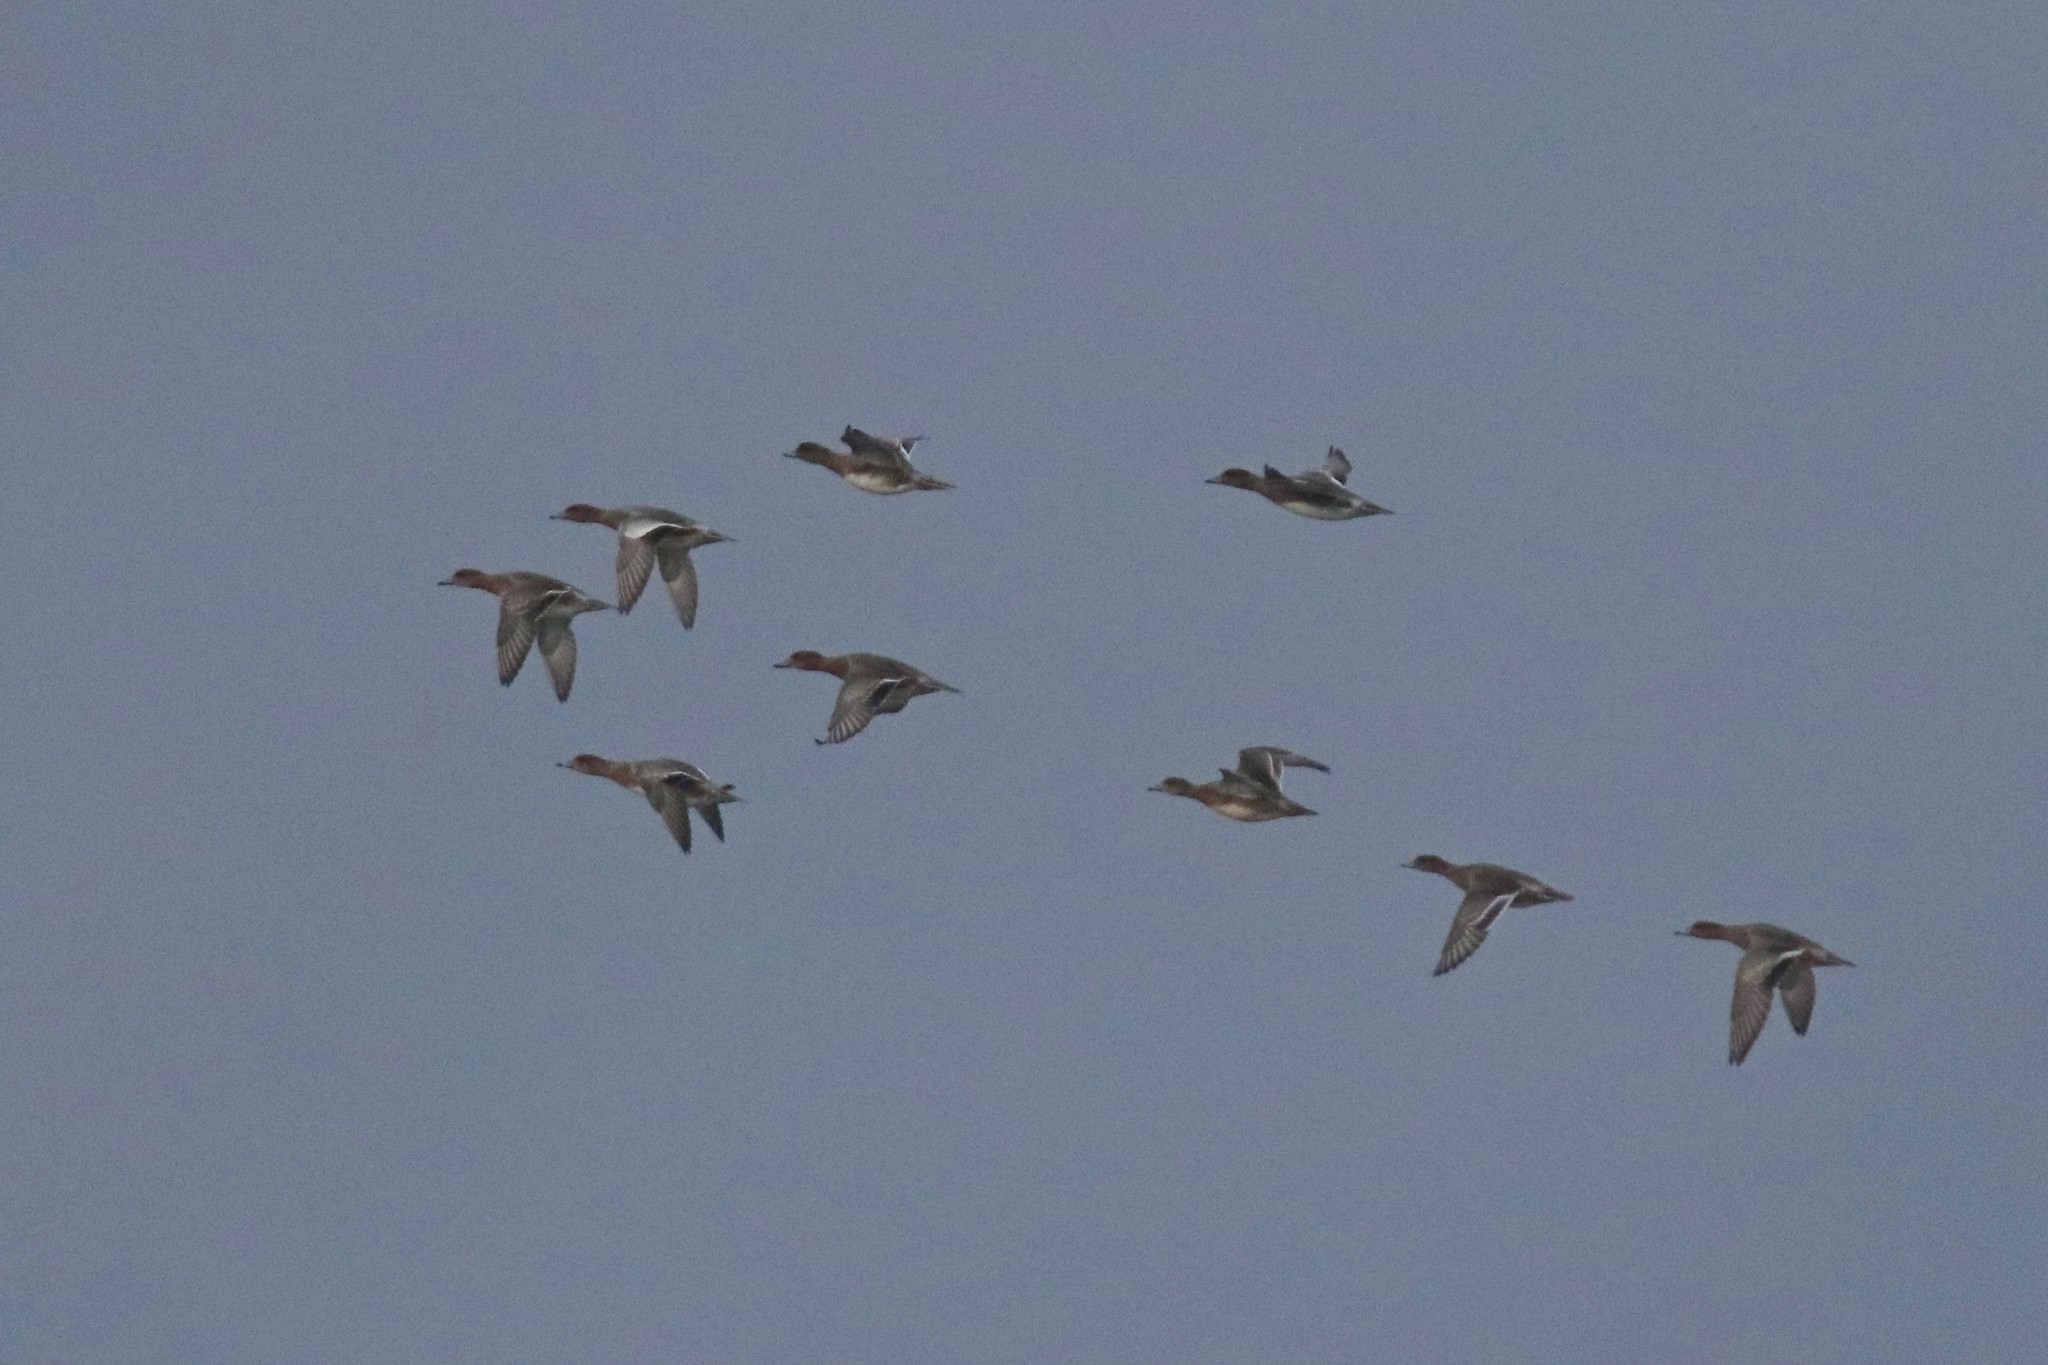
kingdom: Animalia
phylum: Chordata
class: Aves
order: Anseriformes
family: Anatidae
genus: Mareca
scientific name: Mareca penelope
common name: Eurasian wigeon
